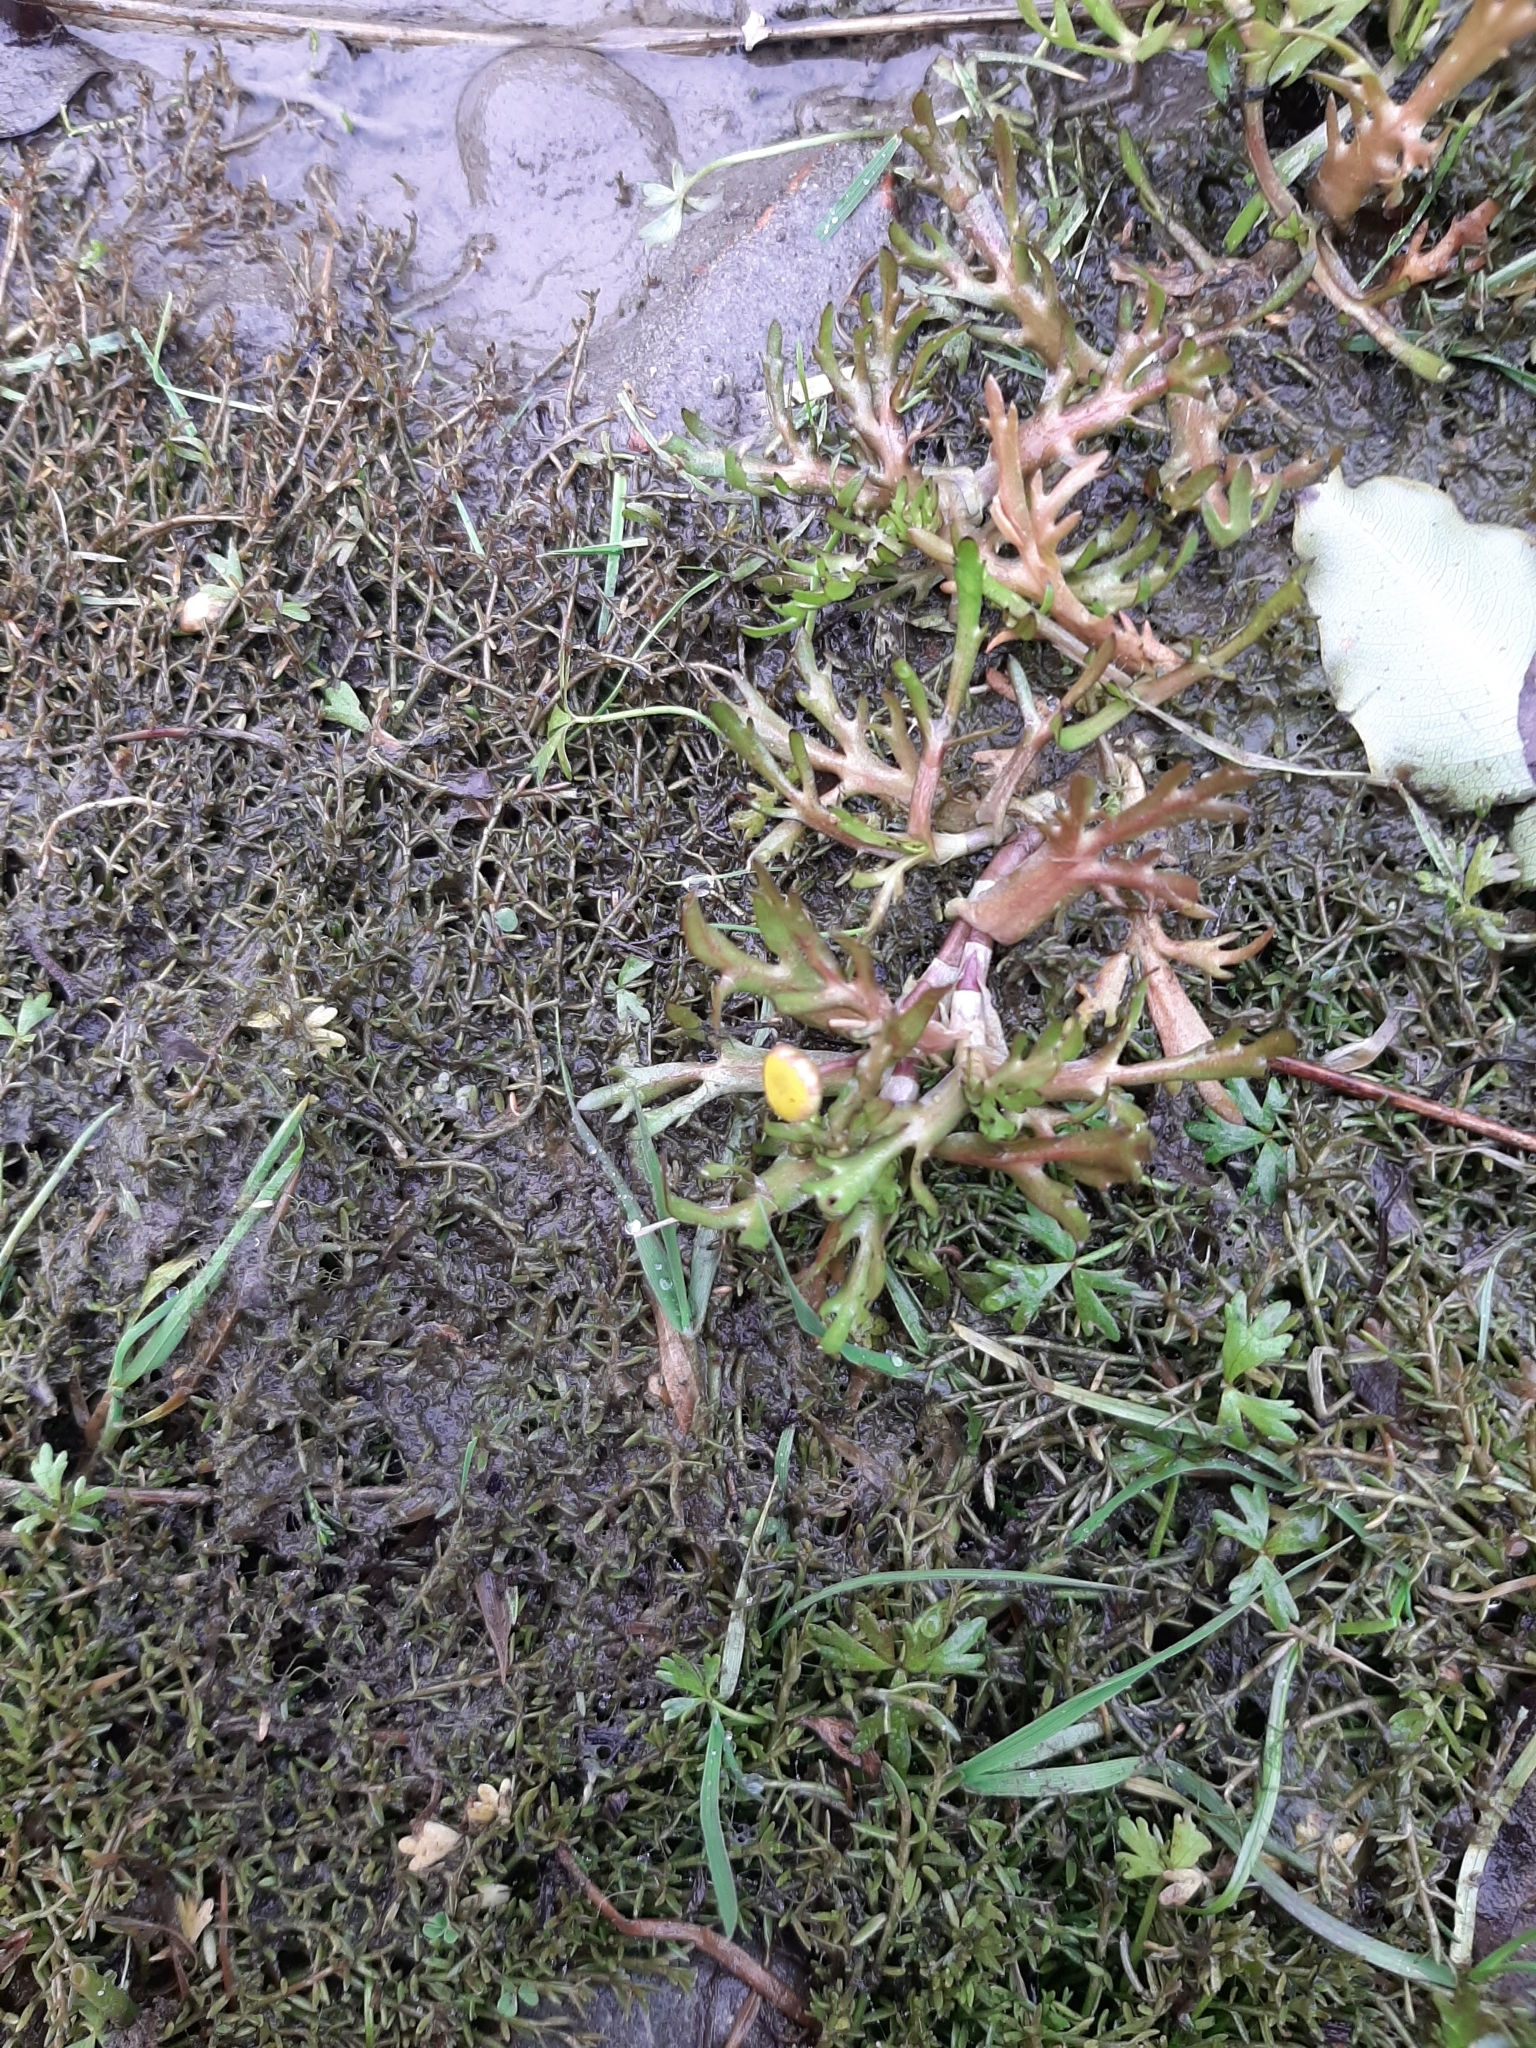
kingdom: Plantae
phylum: Tracheophyta
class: Magnoliopsida
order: Asterales
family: Asteraceae
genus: Cotula
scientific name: Cotula coronopifolia
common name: Buttonweed
